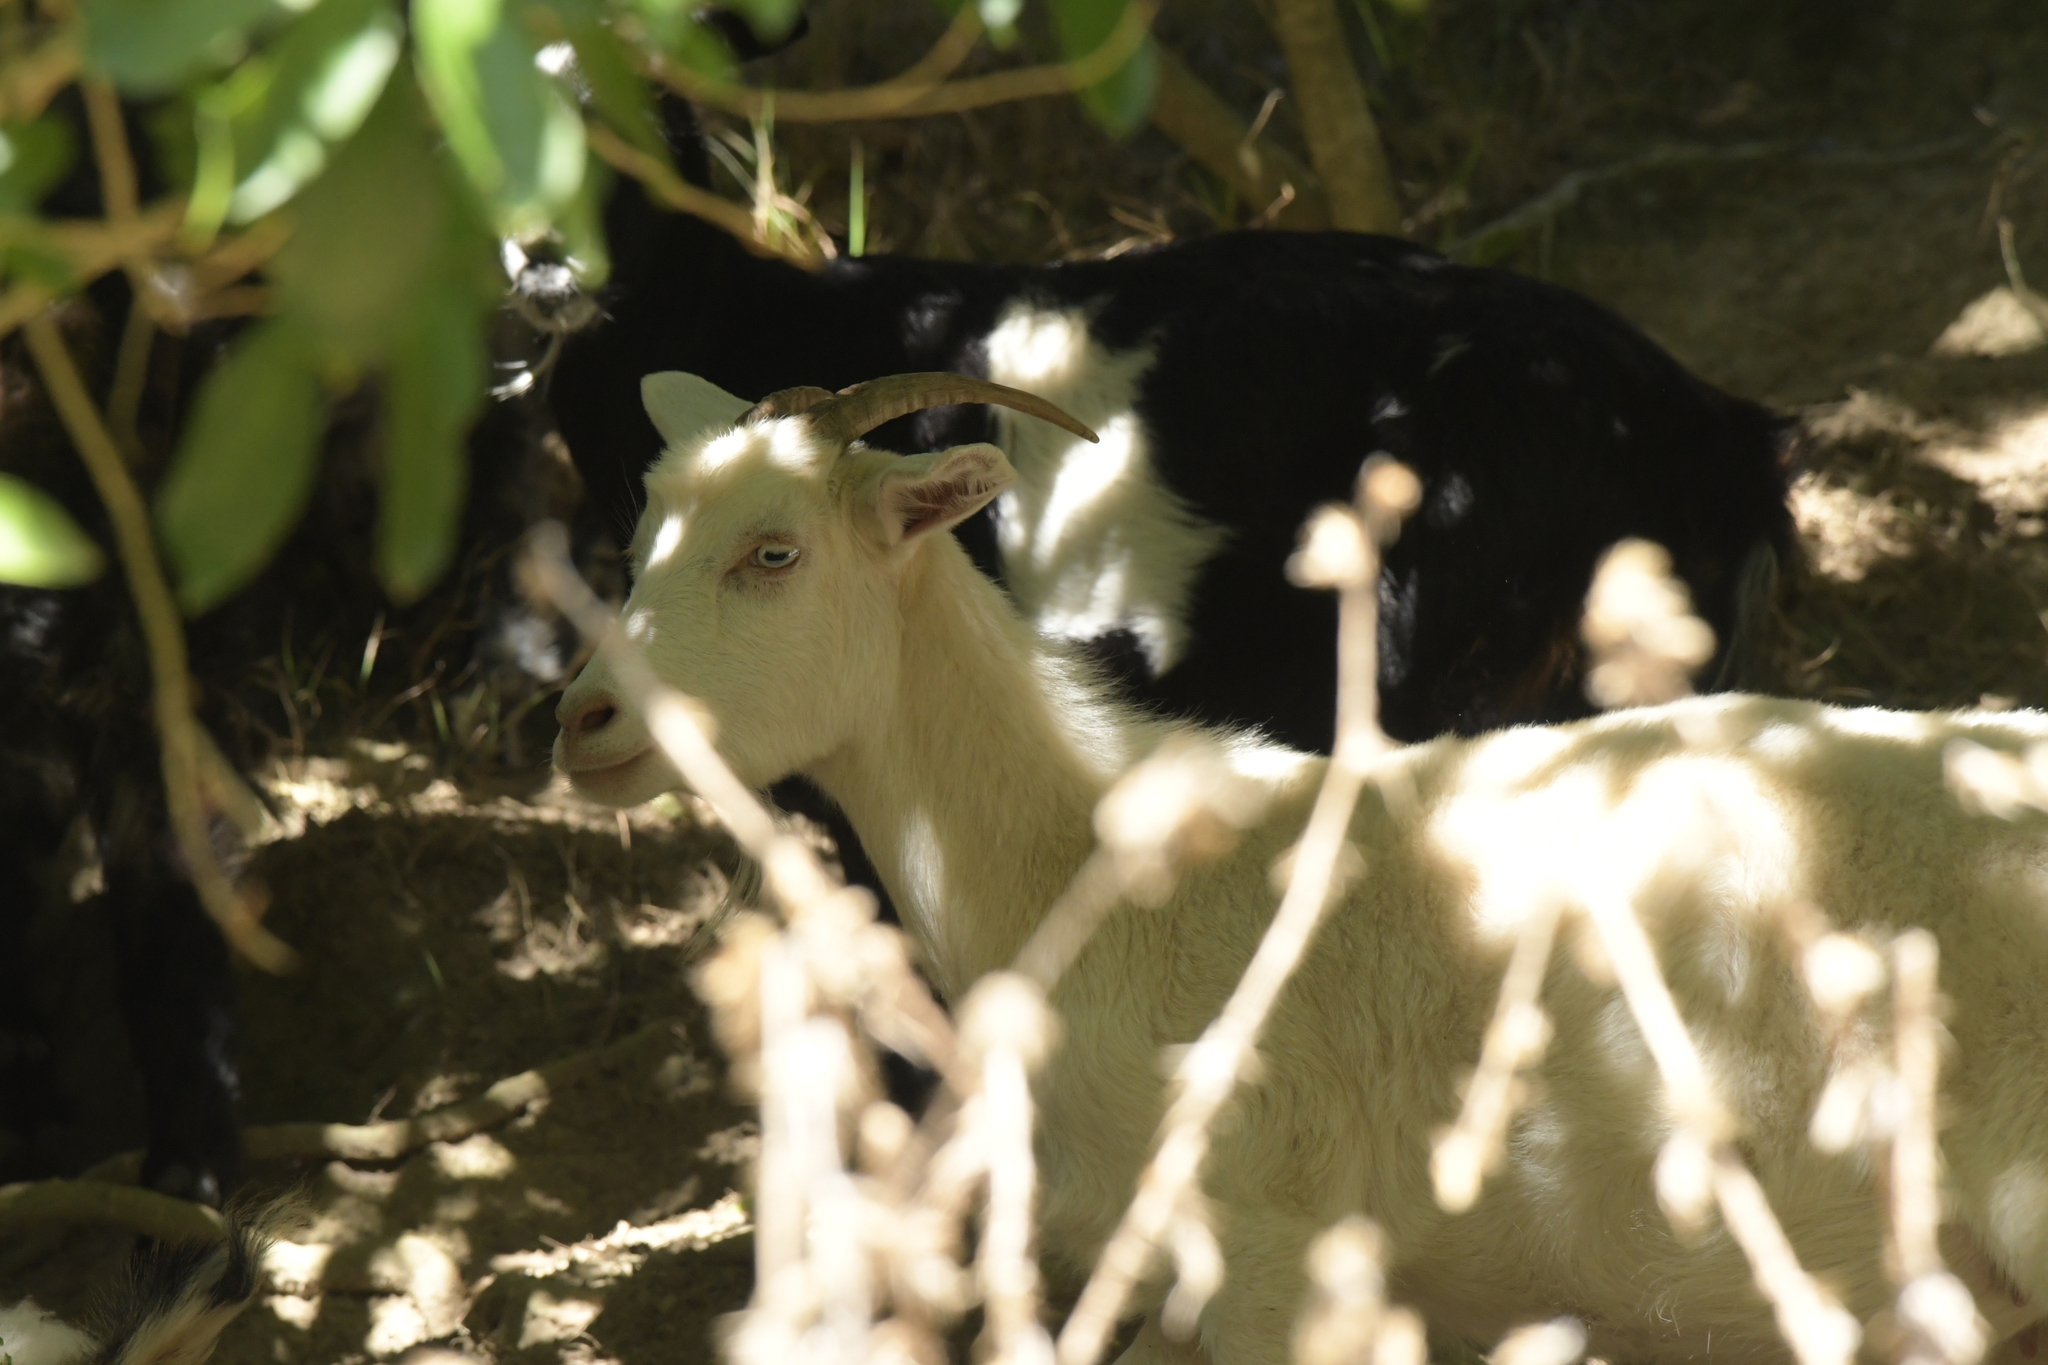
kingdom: Animalia
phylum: Chordata
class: Mammalia
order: Artiodactyla
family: Bovidae
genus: Capra
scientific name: Capra hircus
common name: Domestic goat
